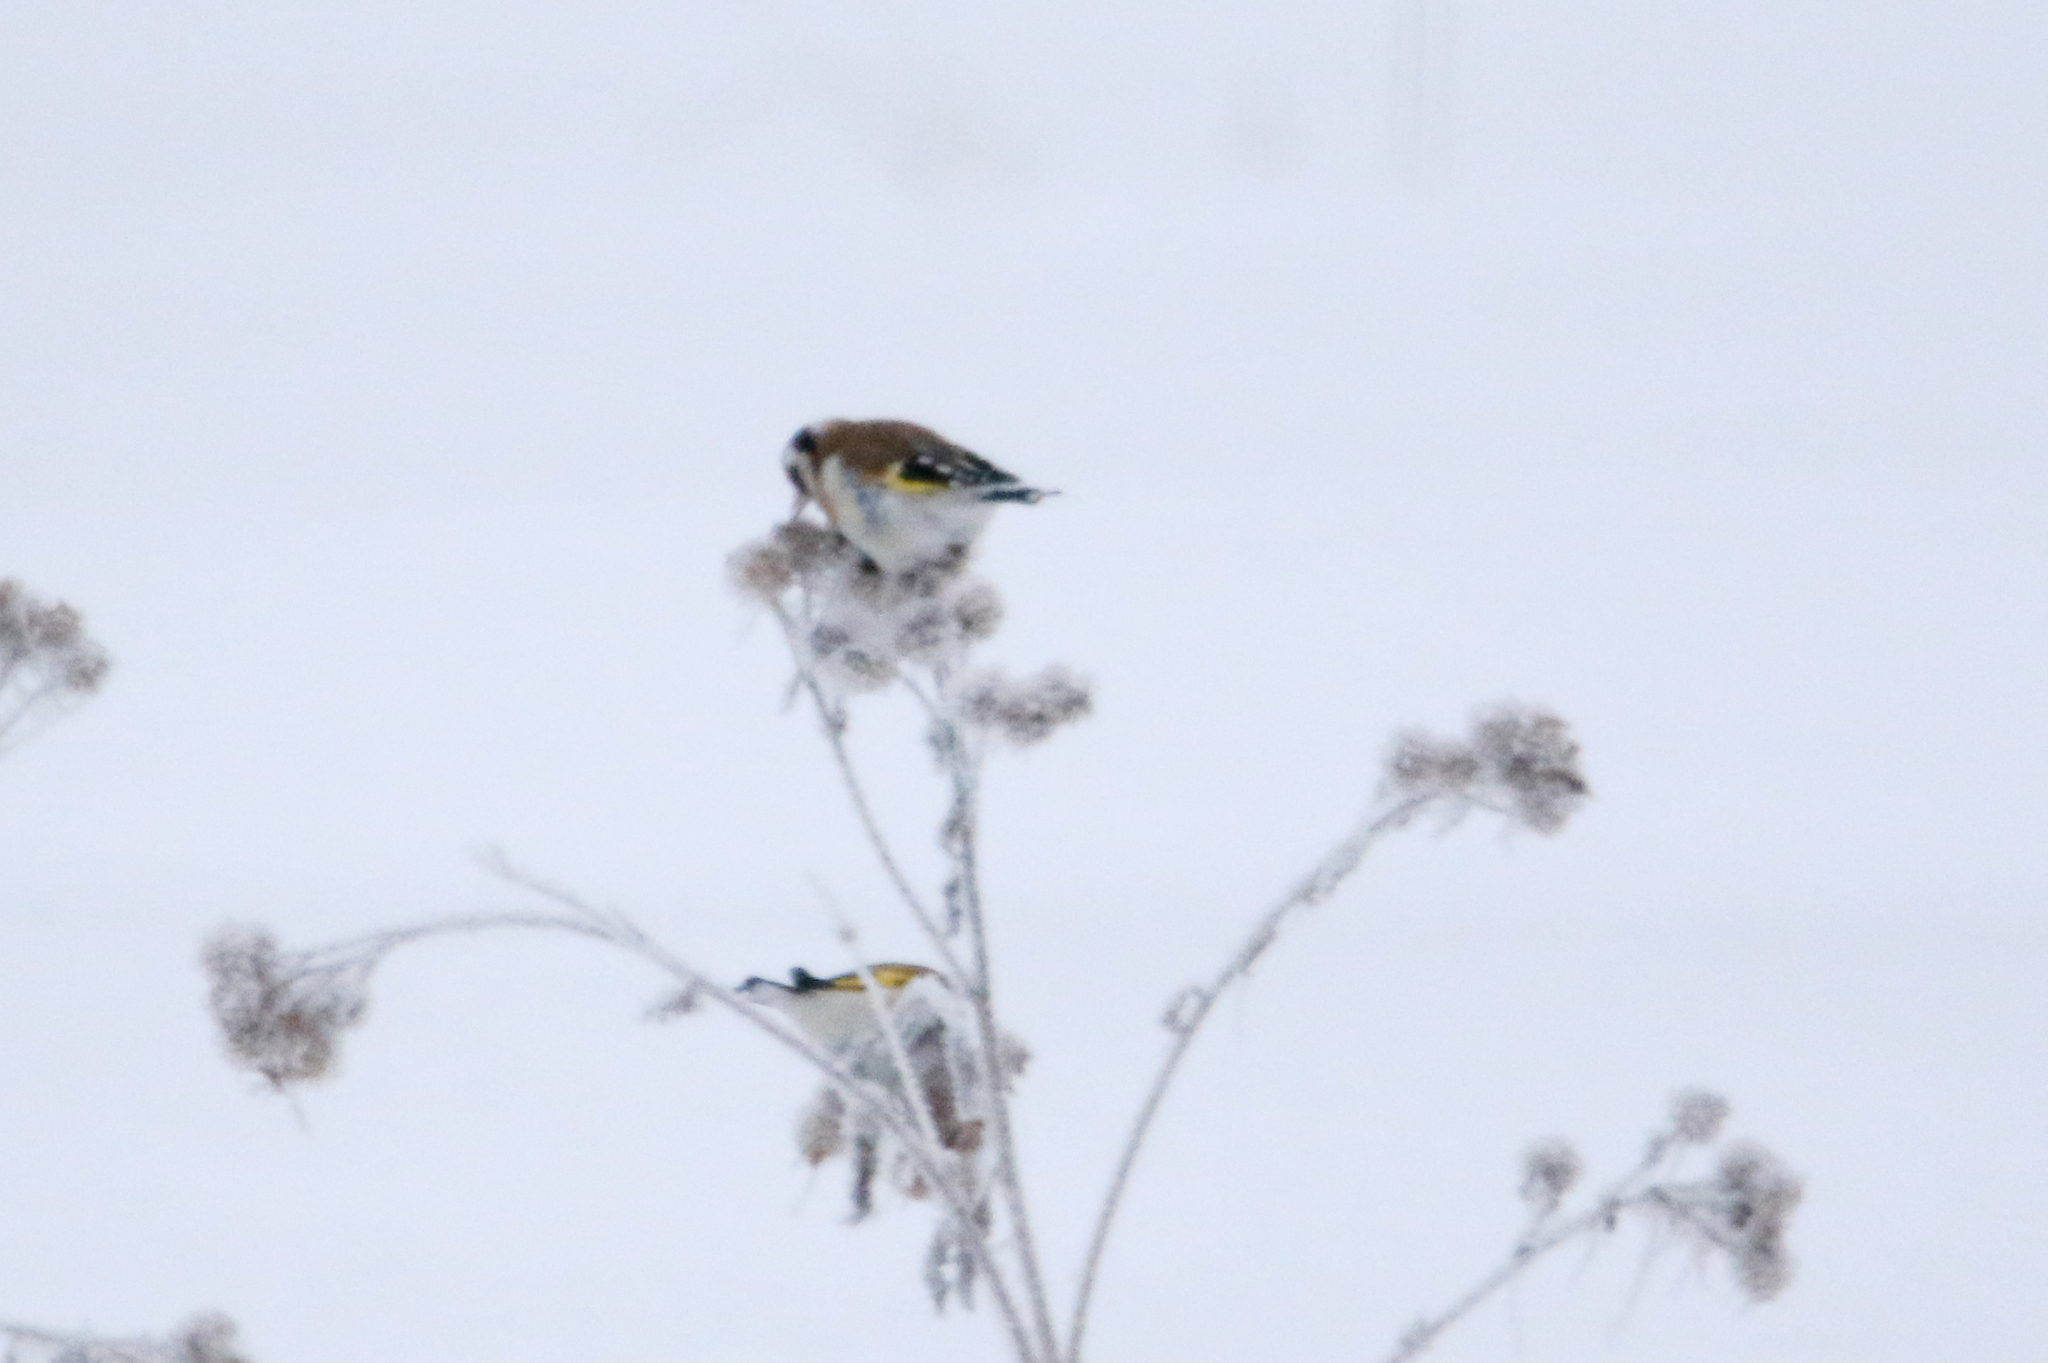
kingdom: Animalia
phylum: Chordata
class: Aves
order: Passeriformes
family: Fringillidae
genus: Carduelis
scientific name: Carduelis carduelis
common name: European goldfinch
